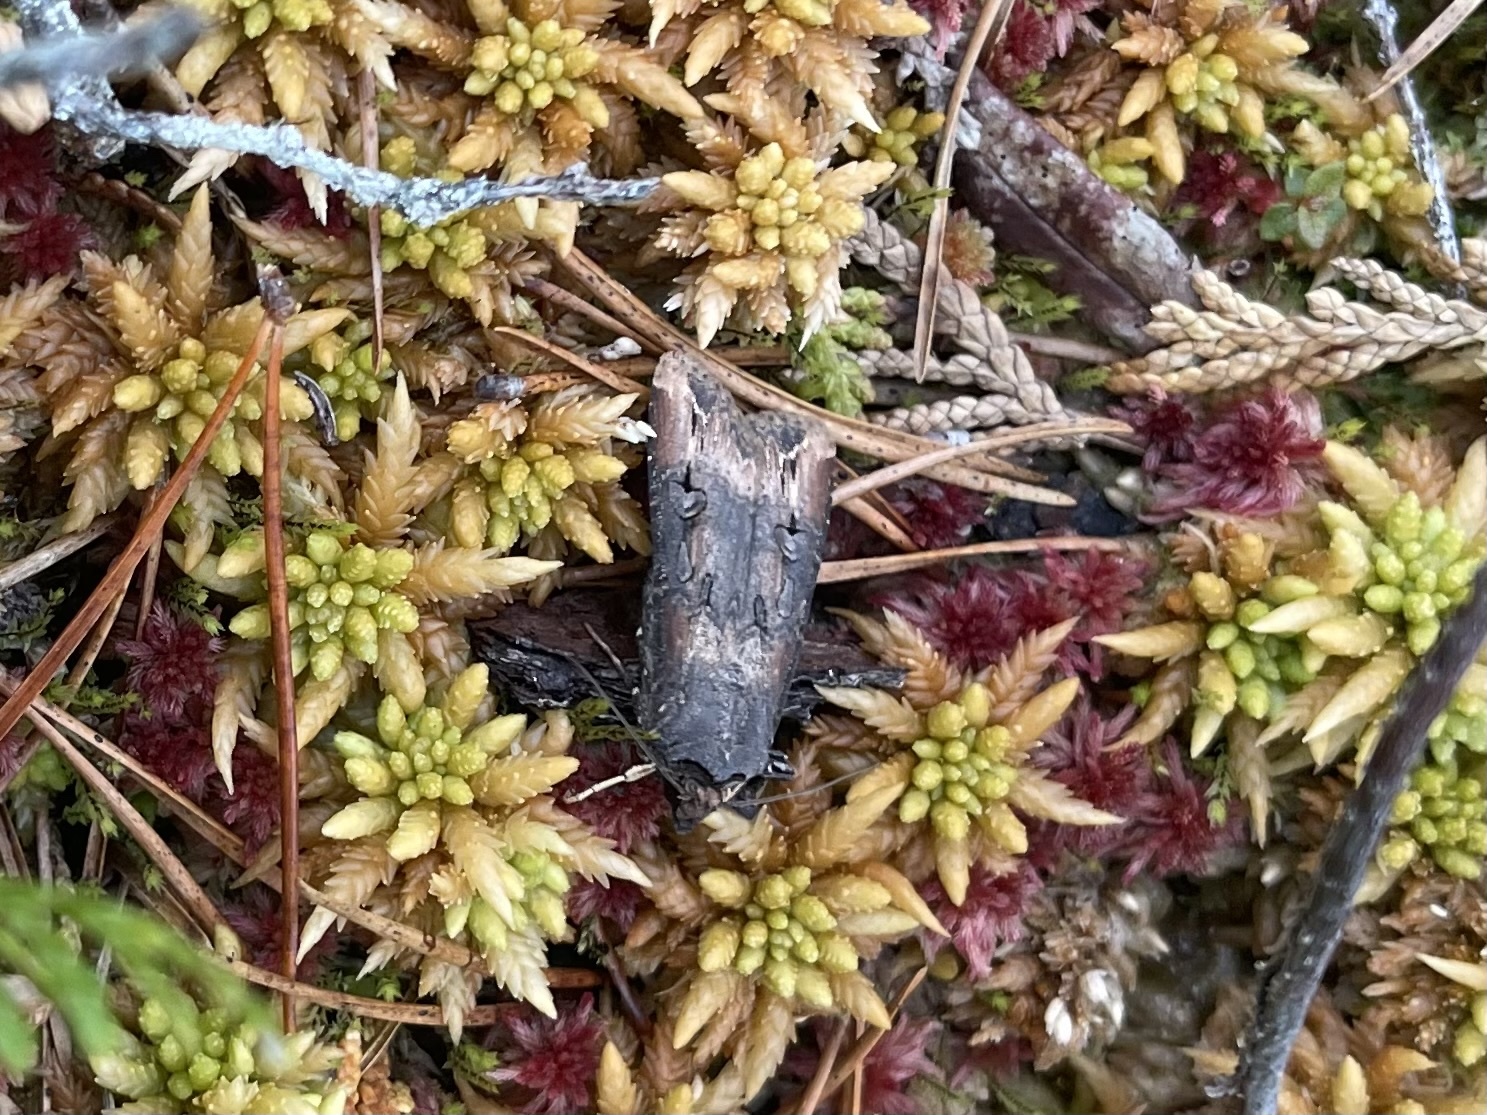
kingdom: Animalia
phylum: Arthropoda
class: Insecta
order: Lepidoptera
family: Noctuidae
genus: Agrotis
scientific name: Agrotis ipsilon
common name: Dark sword-grass
